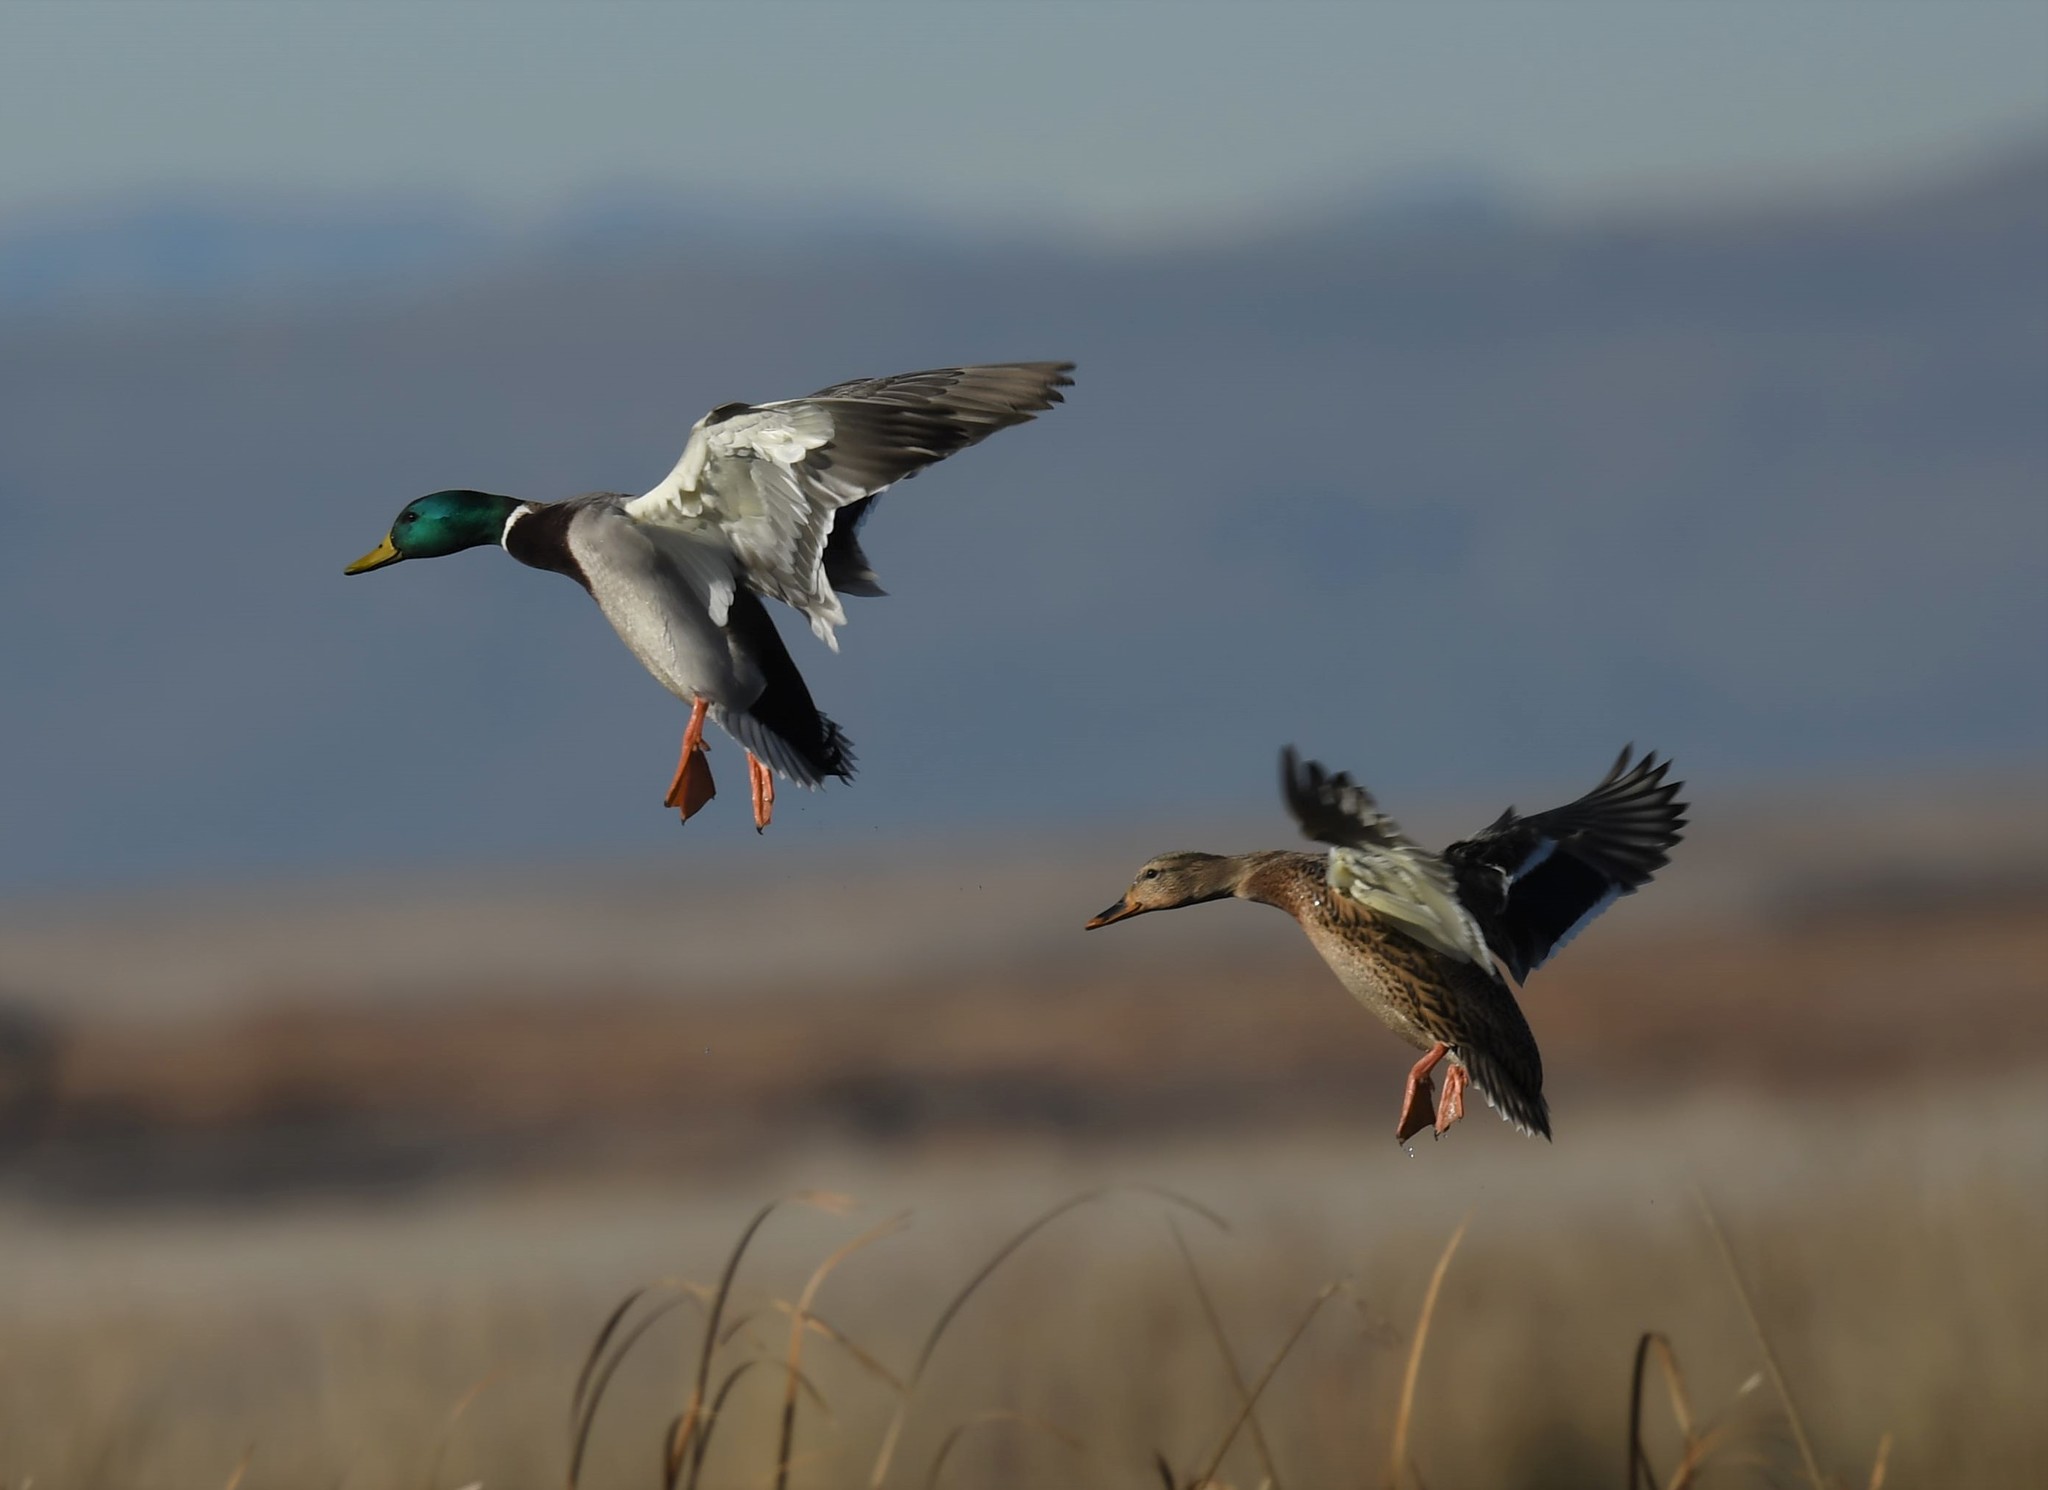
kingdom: Animalia
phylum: Chordata
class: Aves
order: Anseriformes
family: Anatidae
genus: Anas
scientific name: Anas platyrhynchos
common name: Mallard
